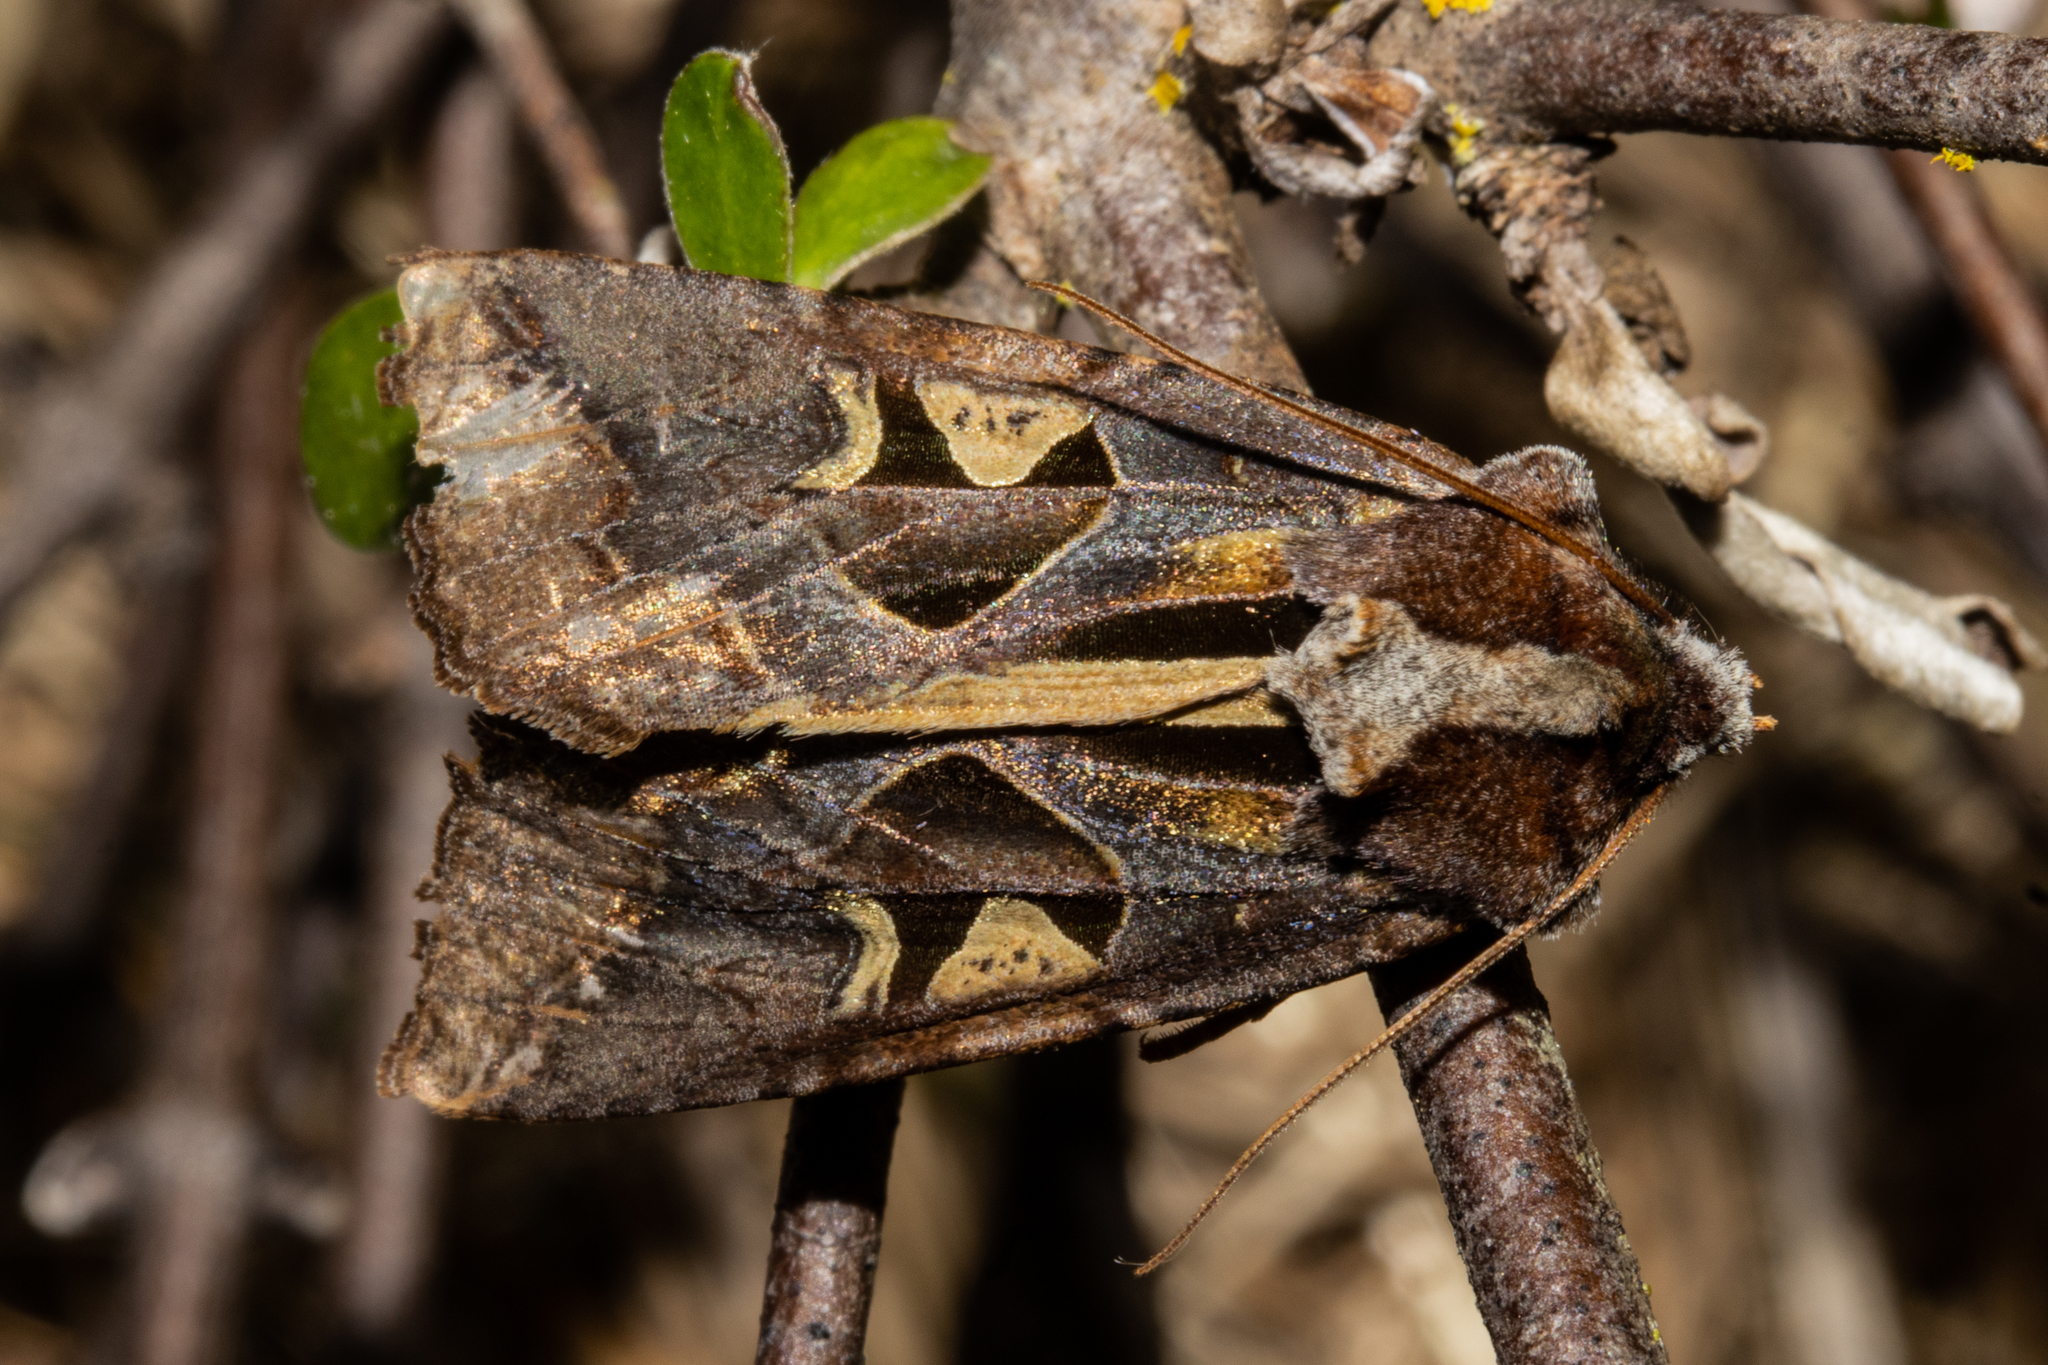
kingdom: Animalia
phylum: Arthropoda
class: Insecta
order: Lepidoptera
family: Noctuidae
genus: Meterana
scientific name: Meterana grandiosa
